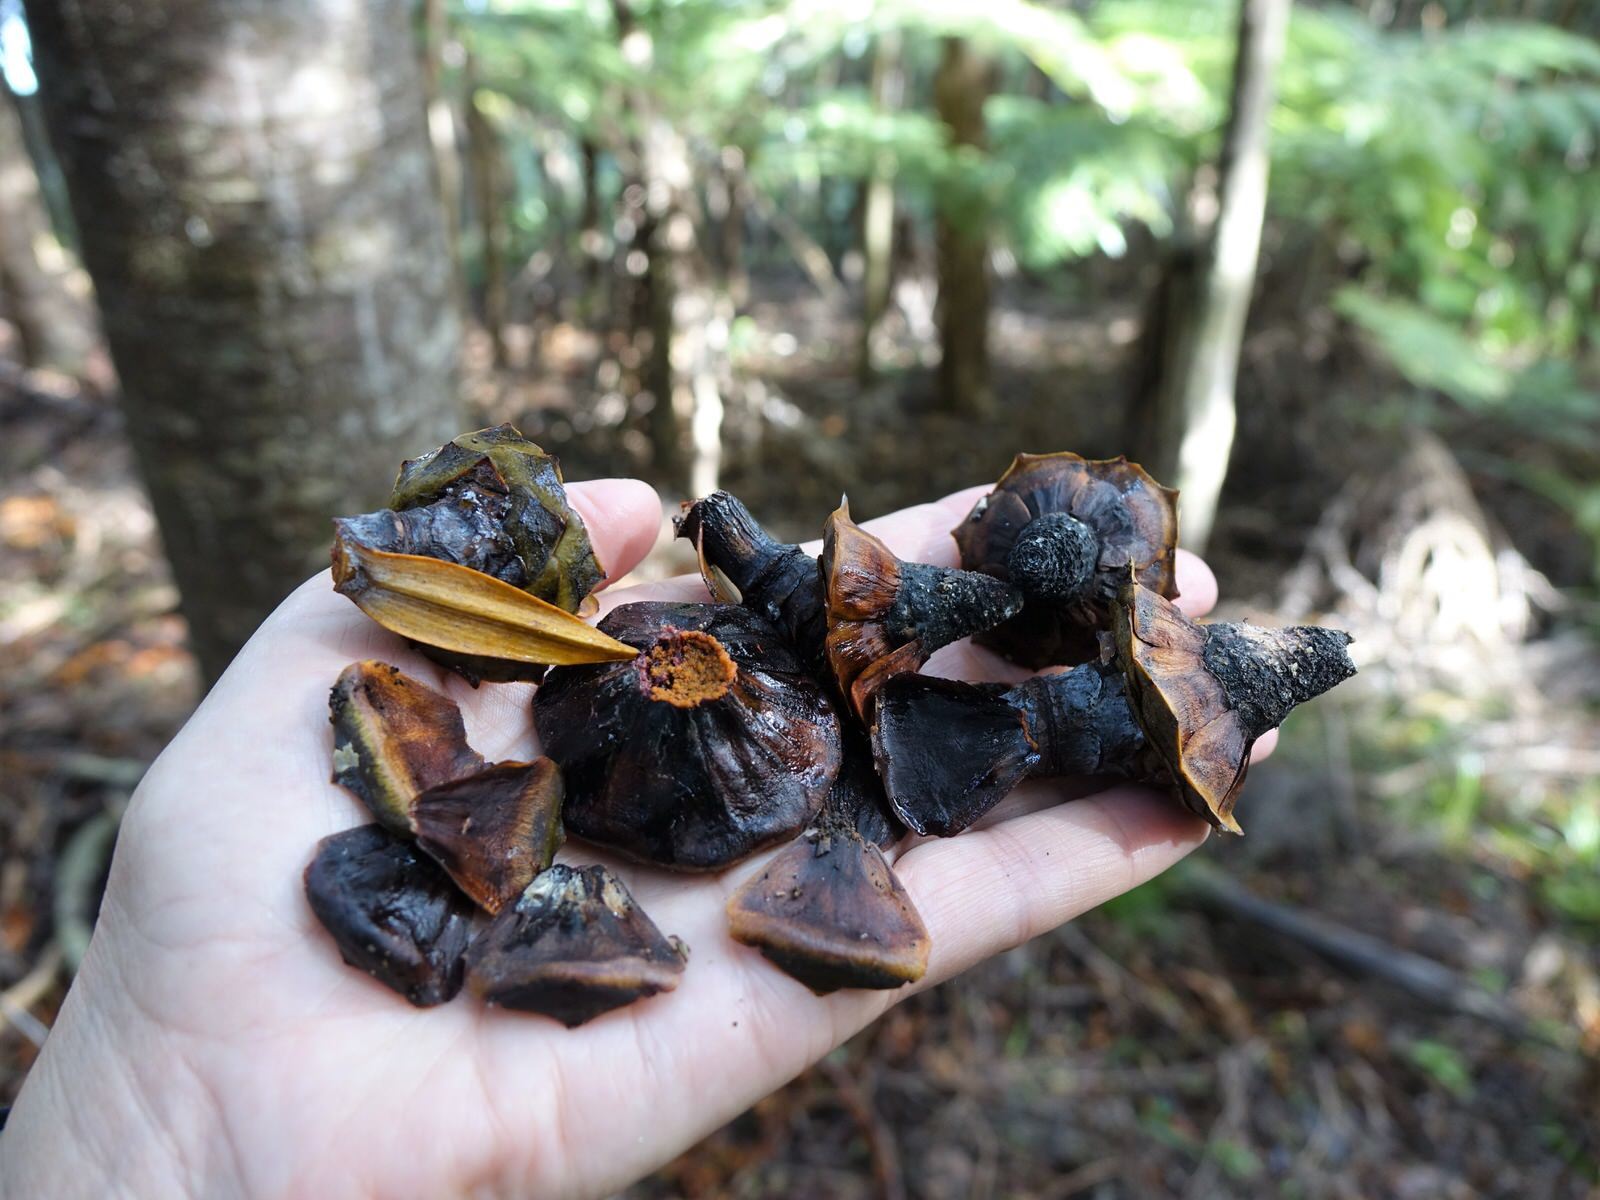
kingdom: Plantae
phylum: Tracheophyta
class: Pinopsida
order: Pinales
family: Araucariaceae
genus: Agathis
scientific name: Agathis australis
